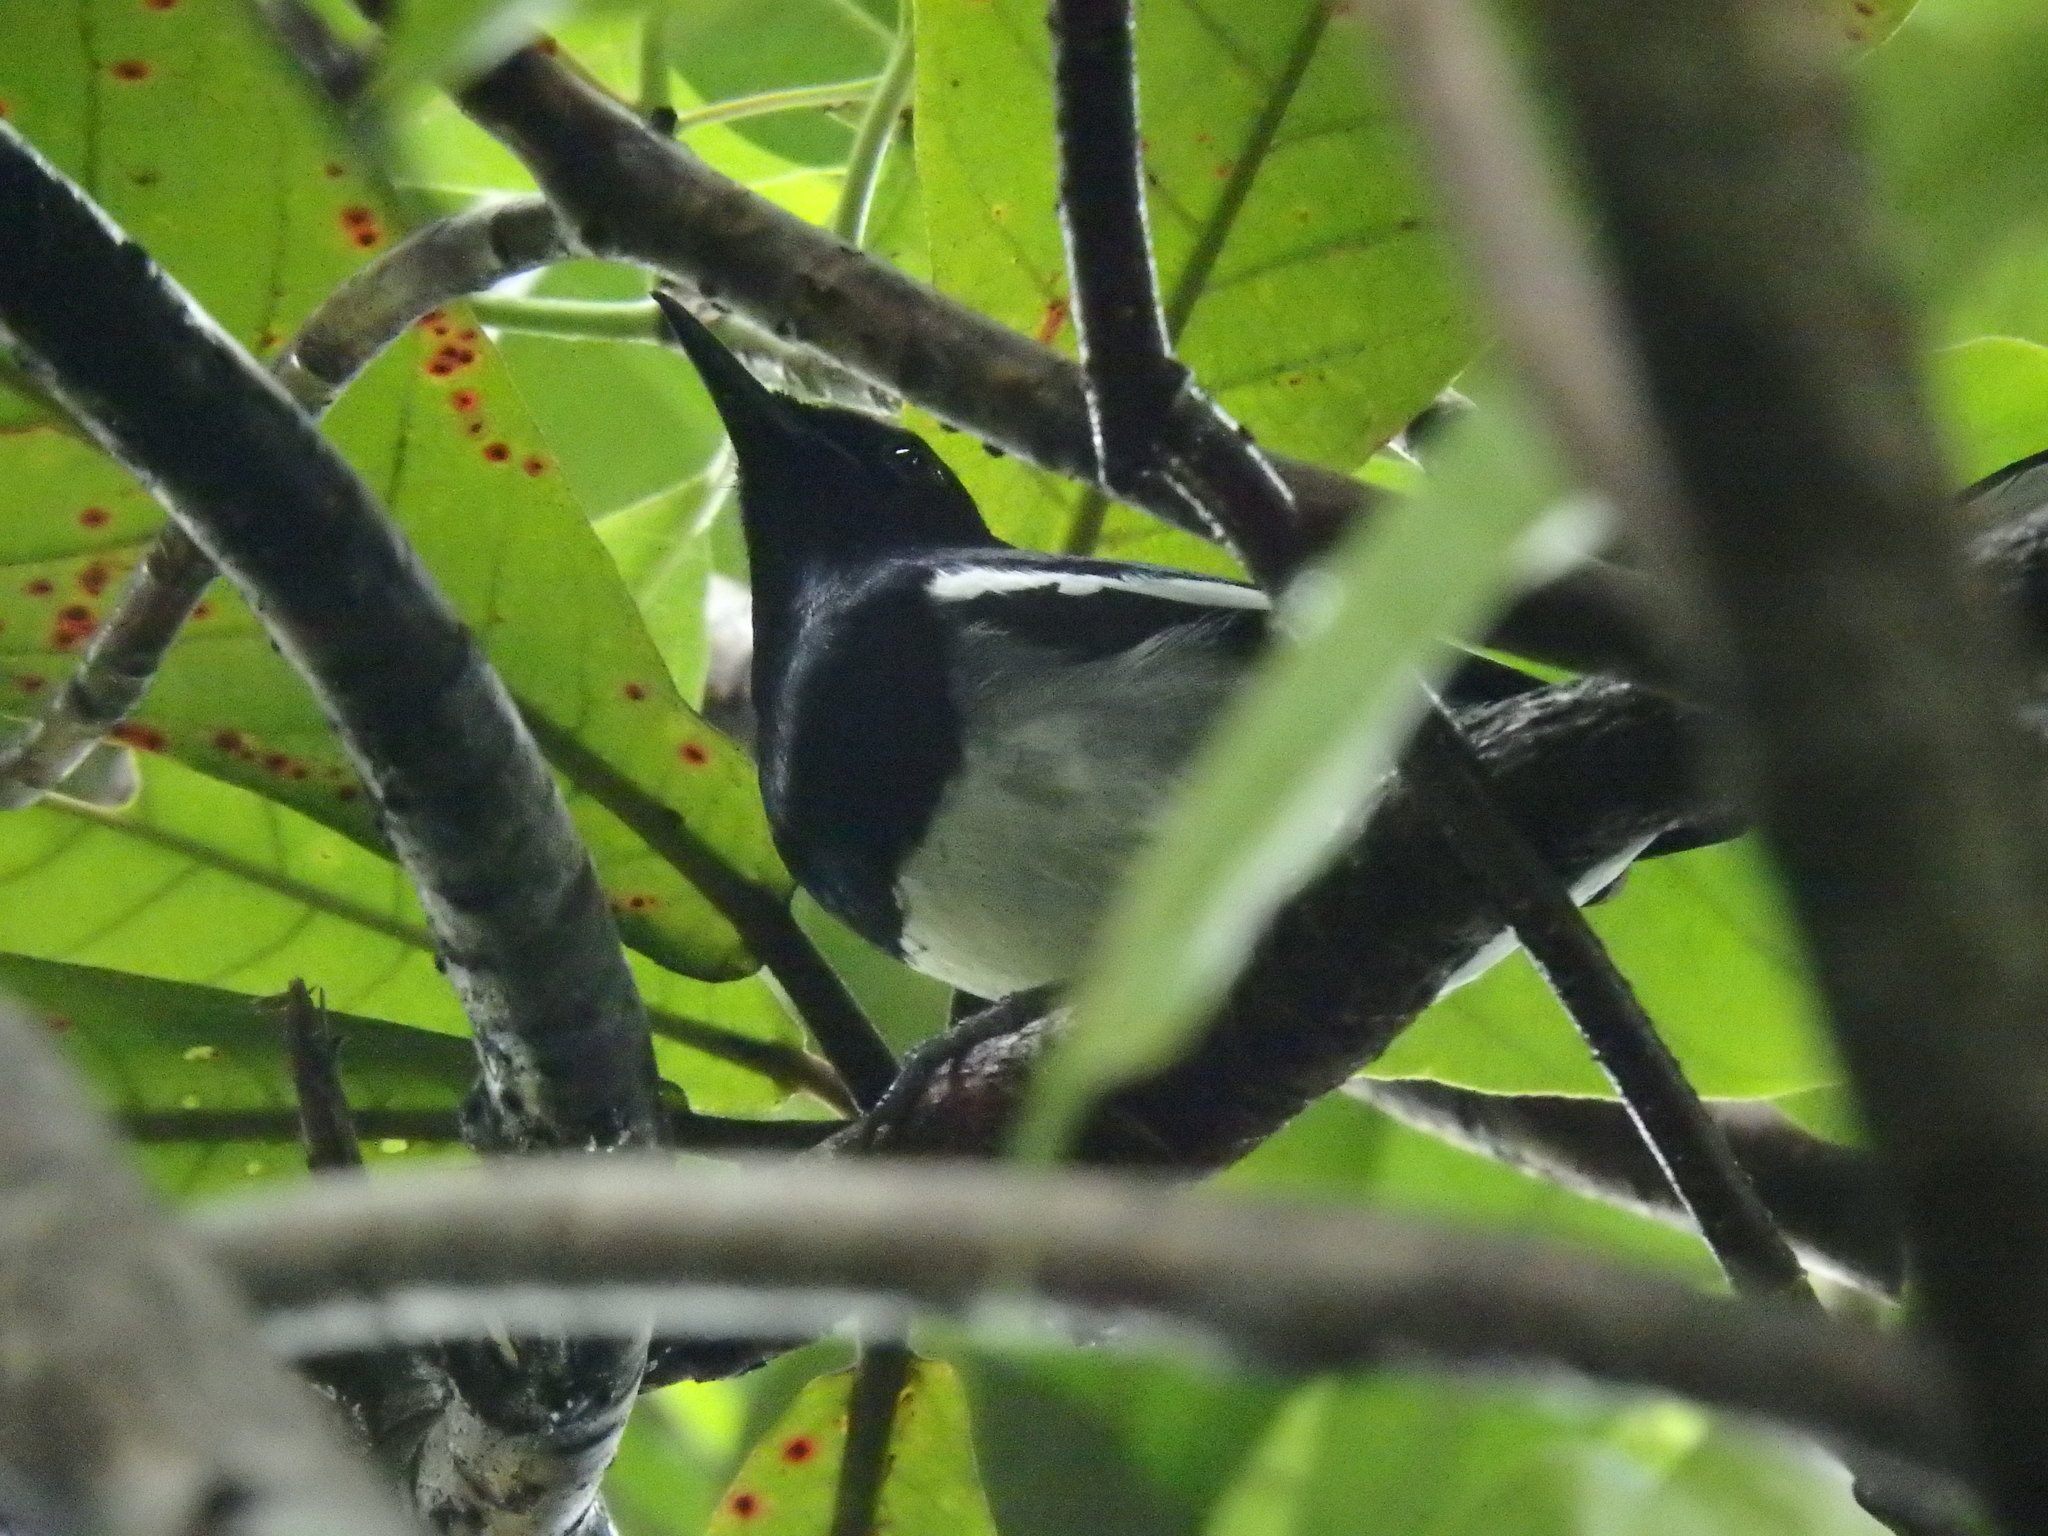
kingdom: Animalia
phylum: Chordata
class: Aves
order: Passeriformes
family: Muscicapidae
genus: Copsychus
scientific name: Copsychus saularis
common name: Oriental magpie-robin
